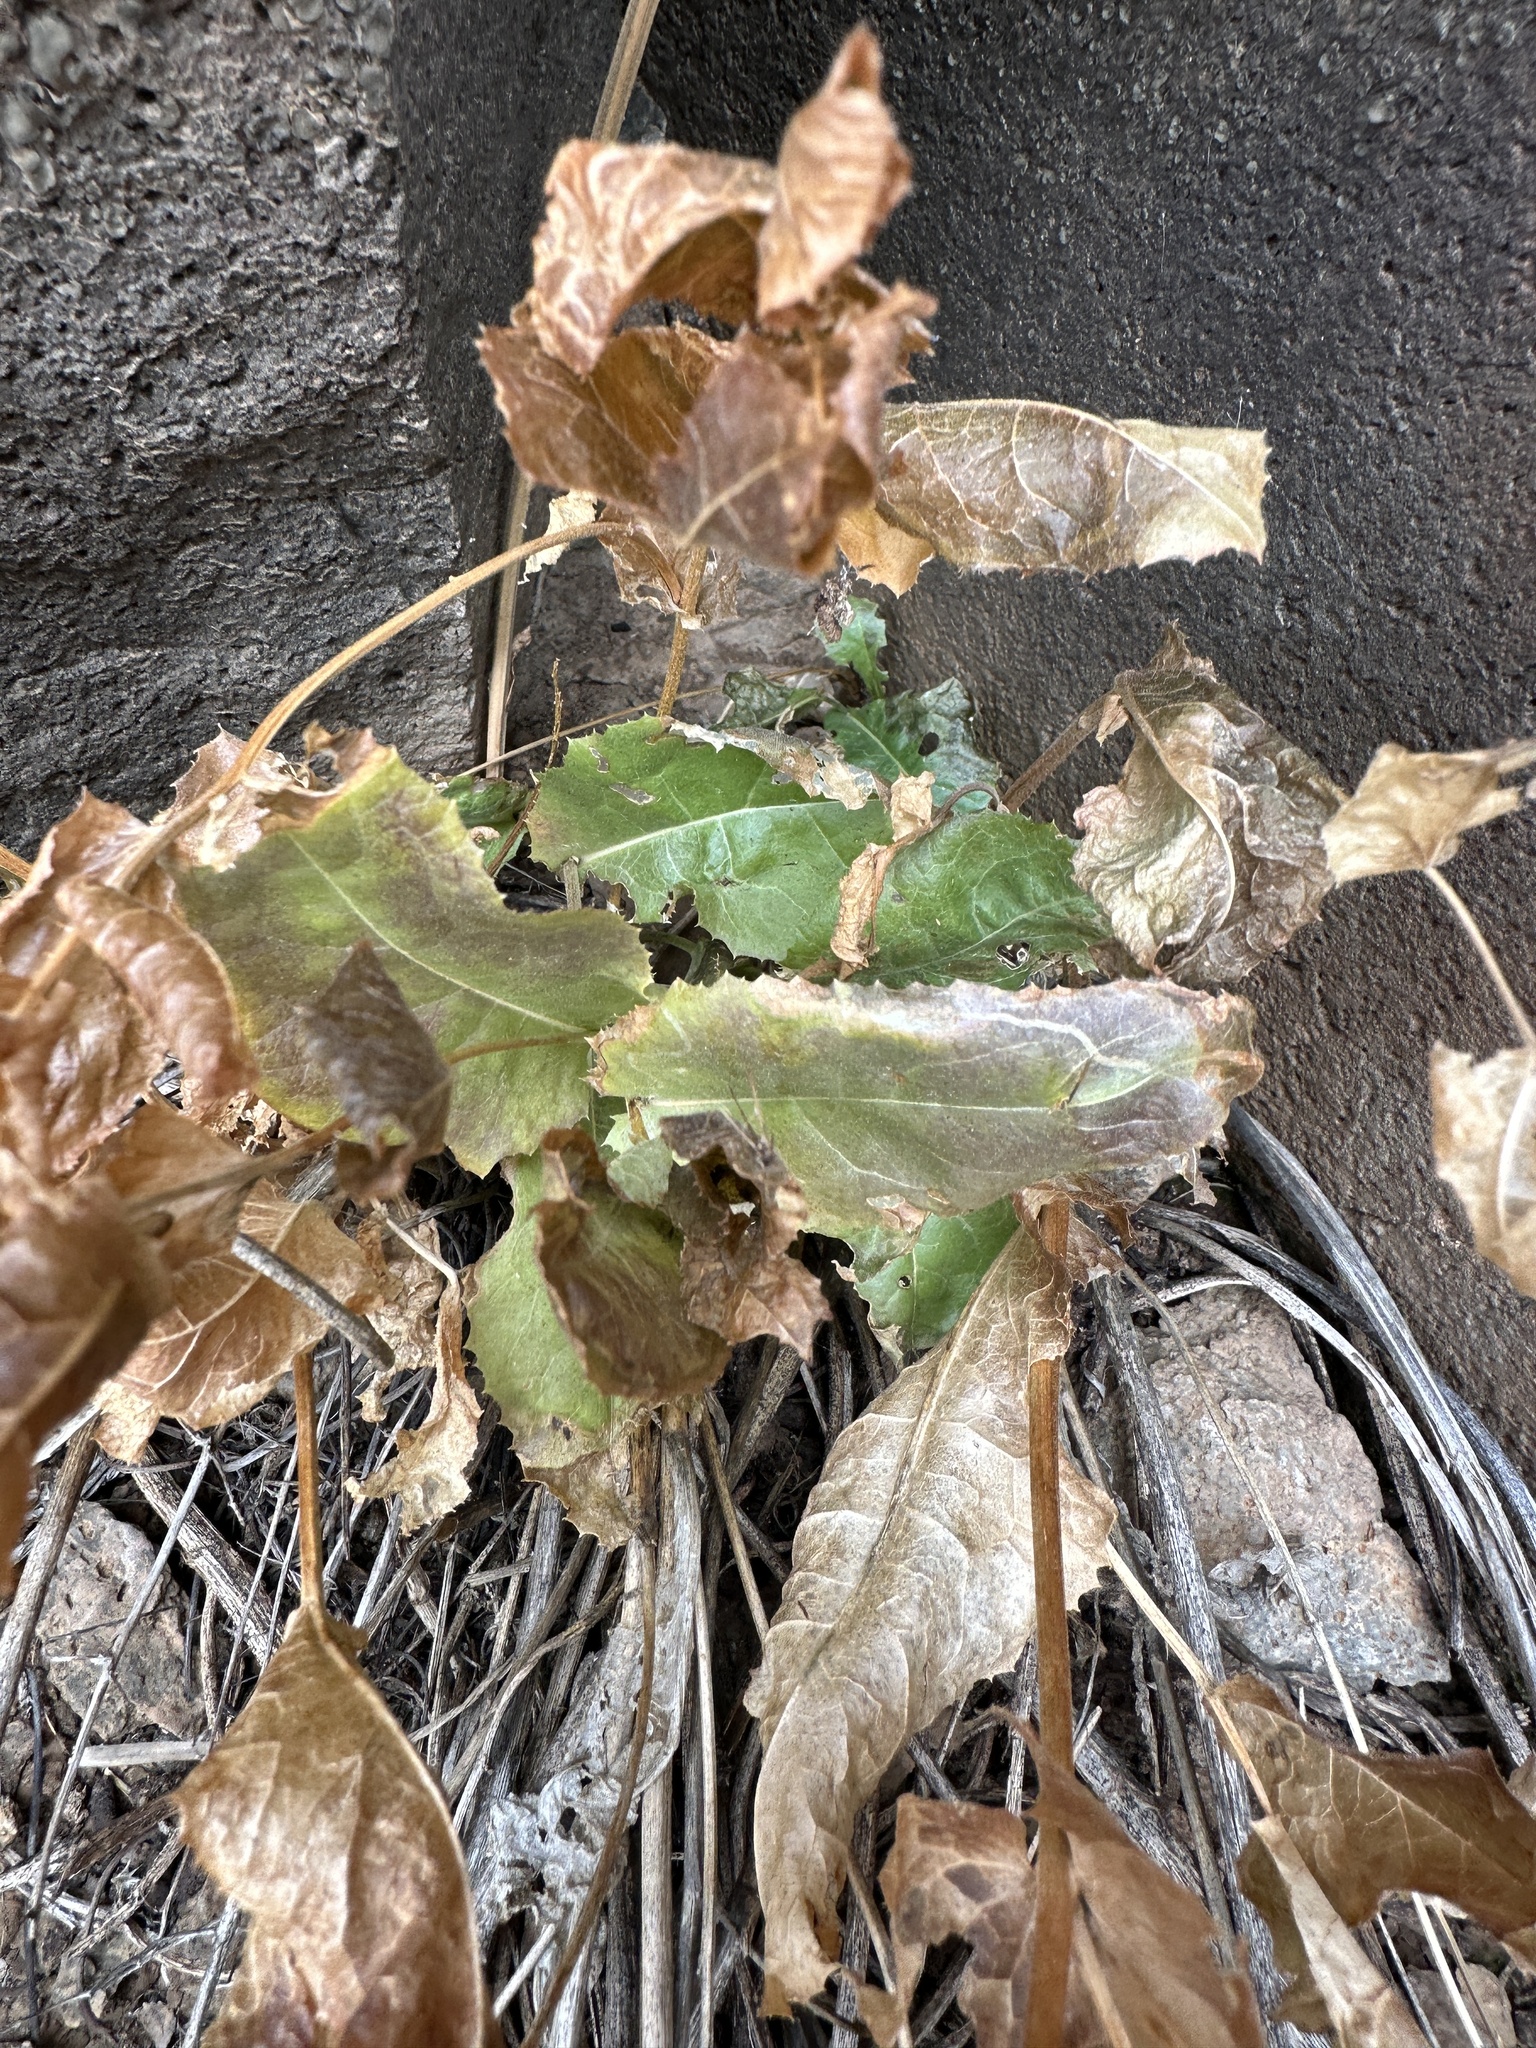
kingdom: Plantae
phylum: Tracheophyta
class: Magnoliopsida
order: Asterales
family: Asteraceae
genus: Acourtia
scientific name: Acourtia wrightii
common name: Brownfoot
